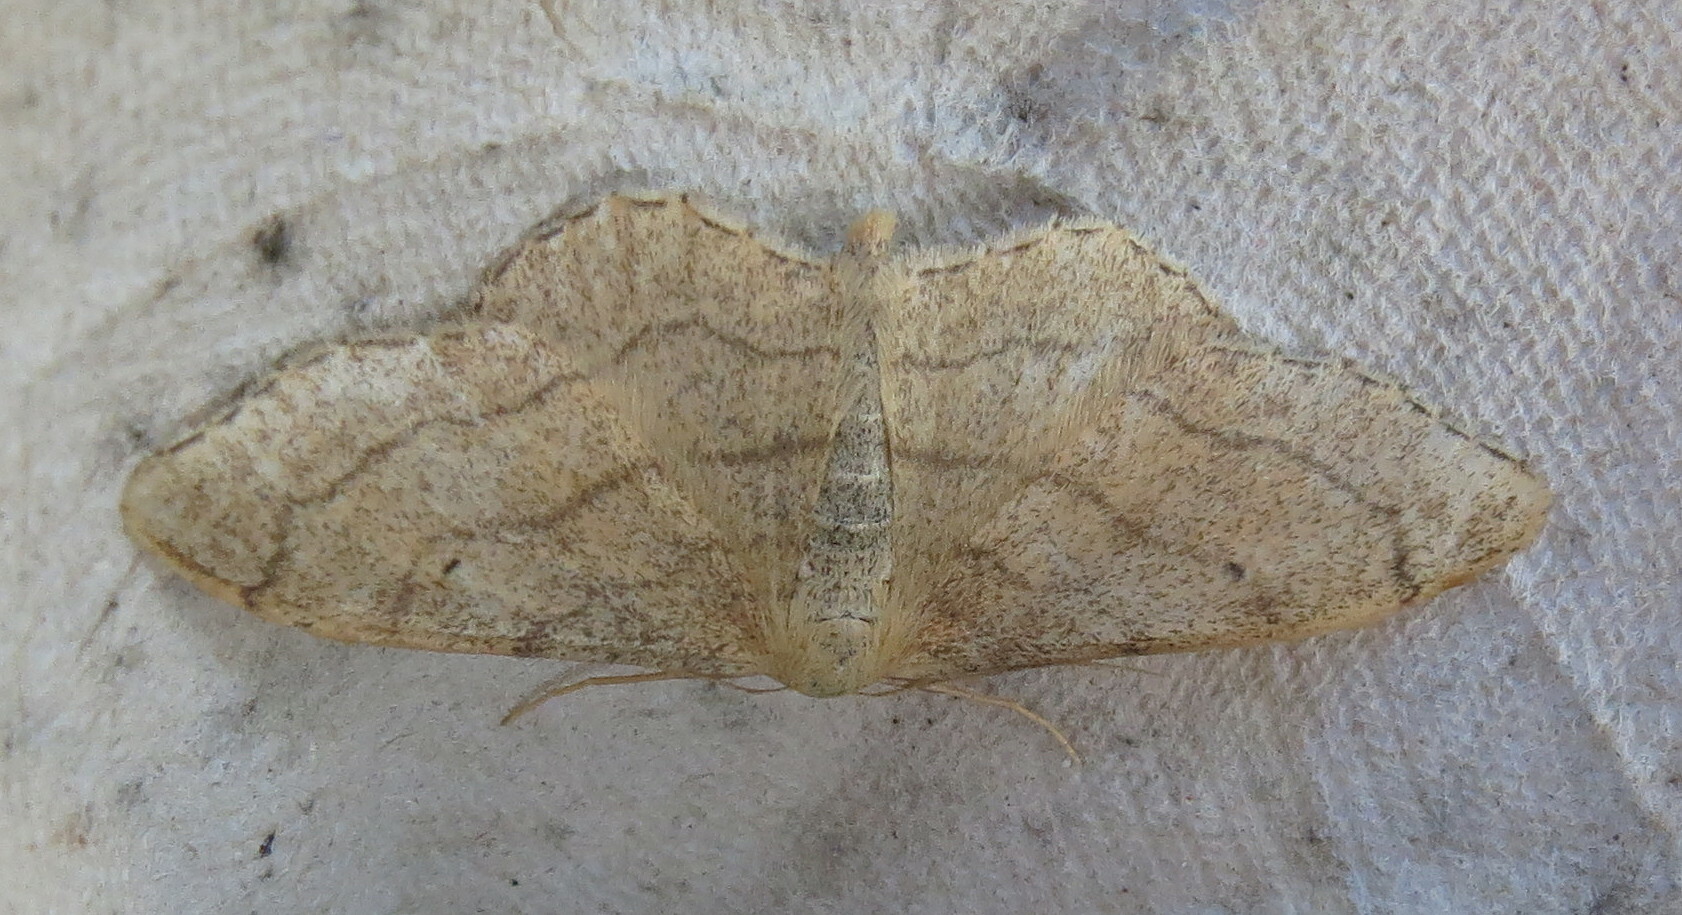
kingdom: Animalia
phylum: Arthropoda
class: Insecta
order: Lepidoptera
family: Geometridae
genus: Idaea
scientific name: Idaea aversata
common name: Riband wave
